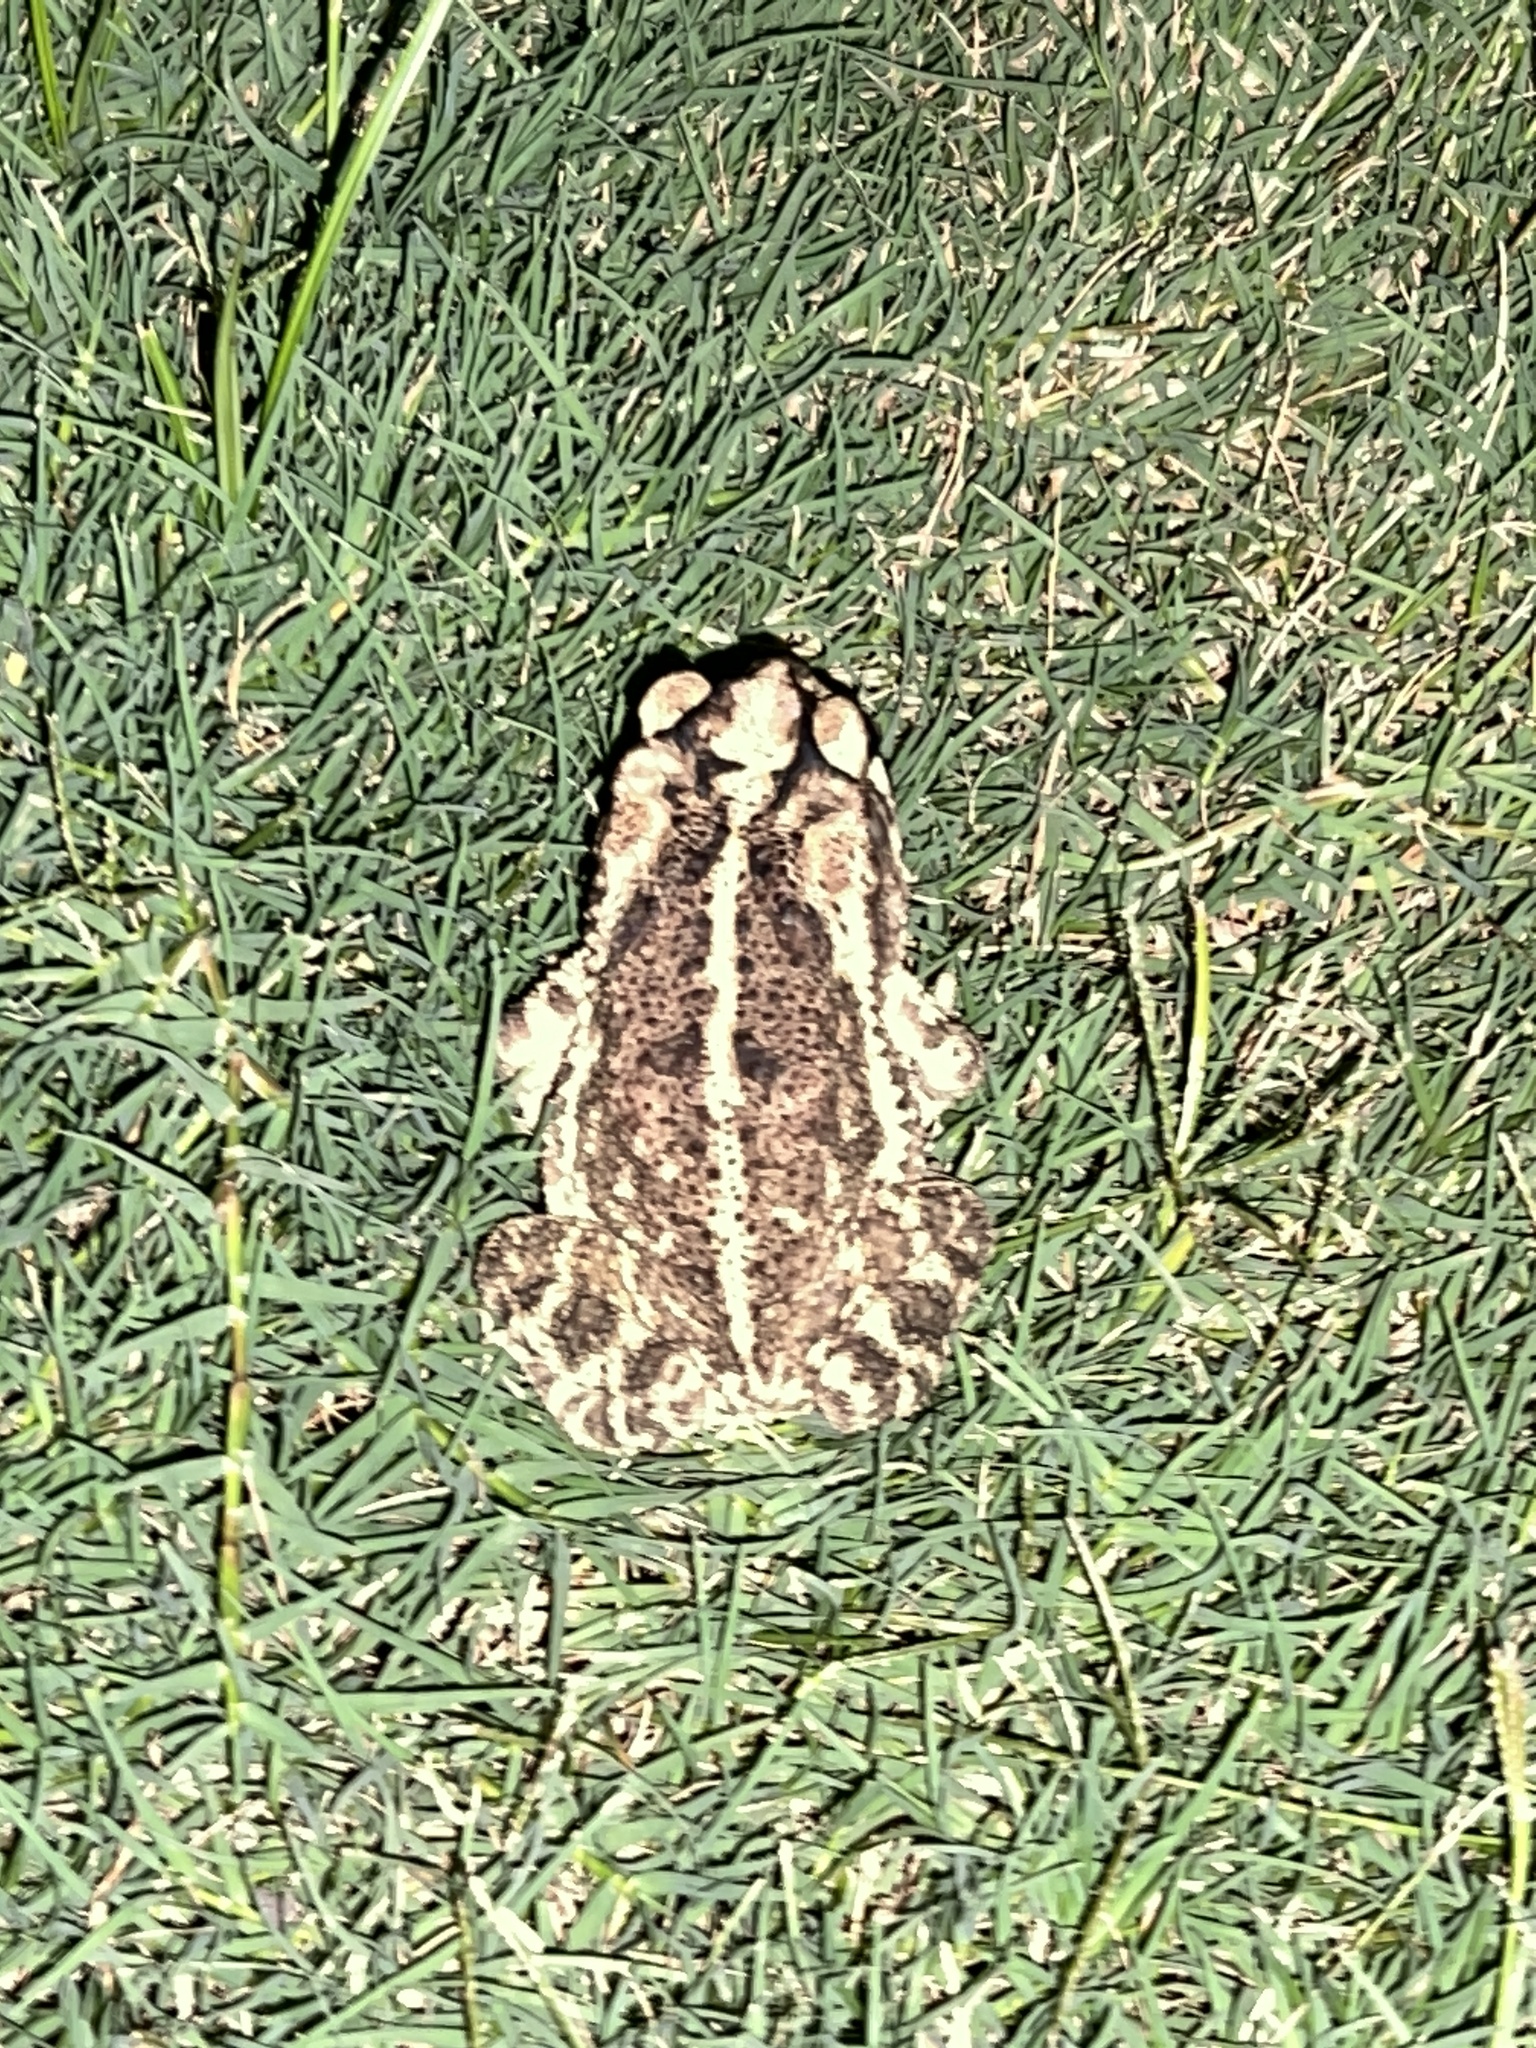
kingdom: Animalia
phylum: Chordata
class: Amphibia
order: Anura
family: Bufonidae
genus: Incilius
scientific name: Incilius nebulifer
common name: Gulf coast toad
